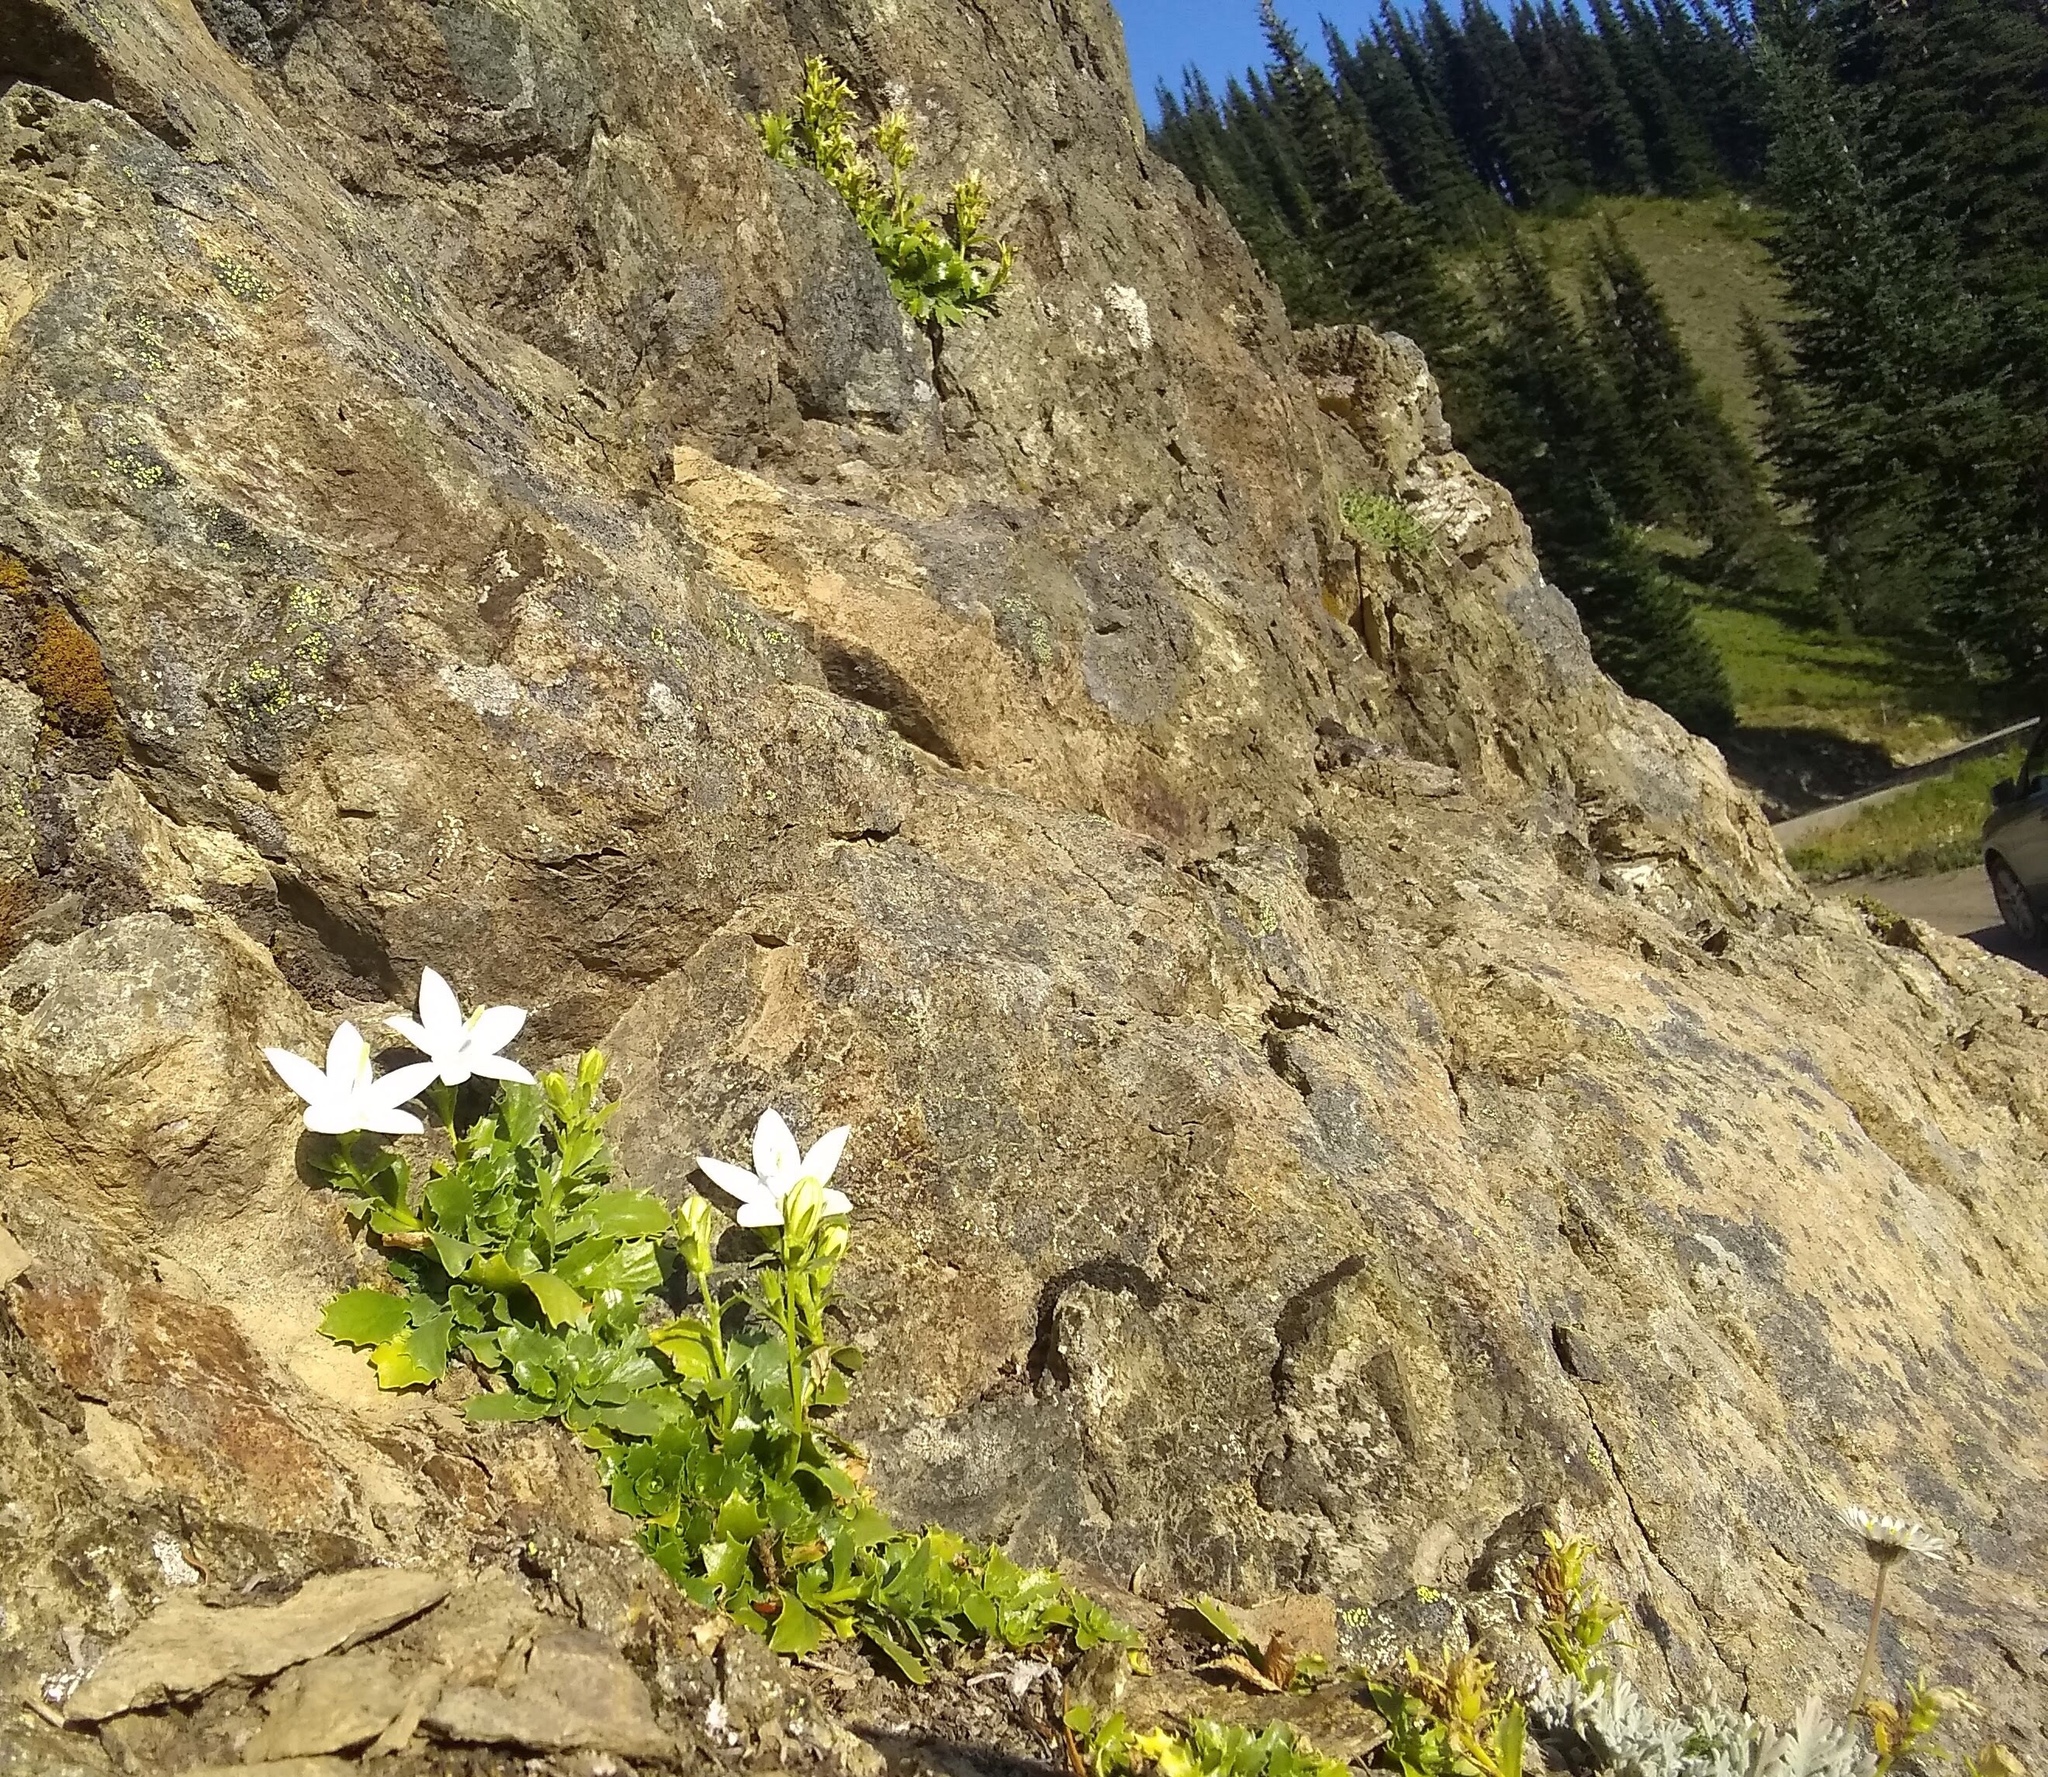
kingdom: Plantae
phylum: Tracheophyta
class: Magnoliopsida
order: Asterales
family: Campanulaceae
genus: Campanula
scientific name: Campanula piperi
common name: Olympic bellflower
